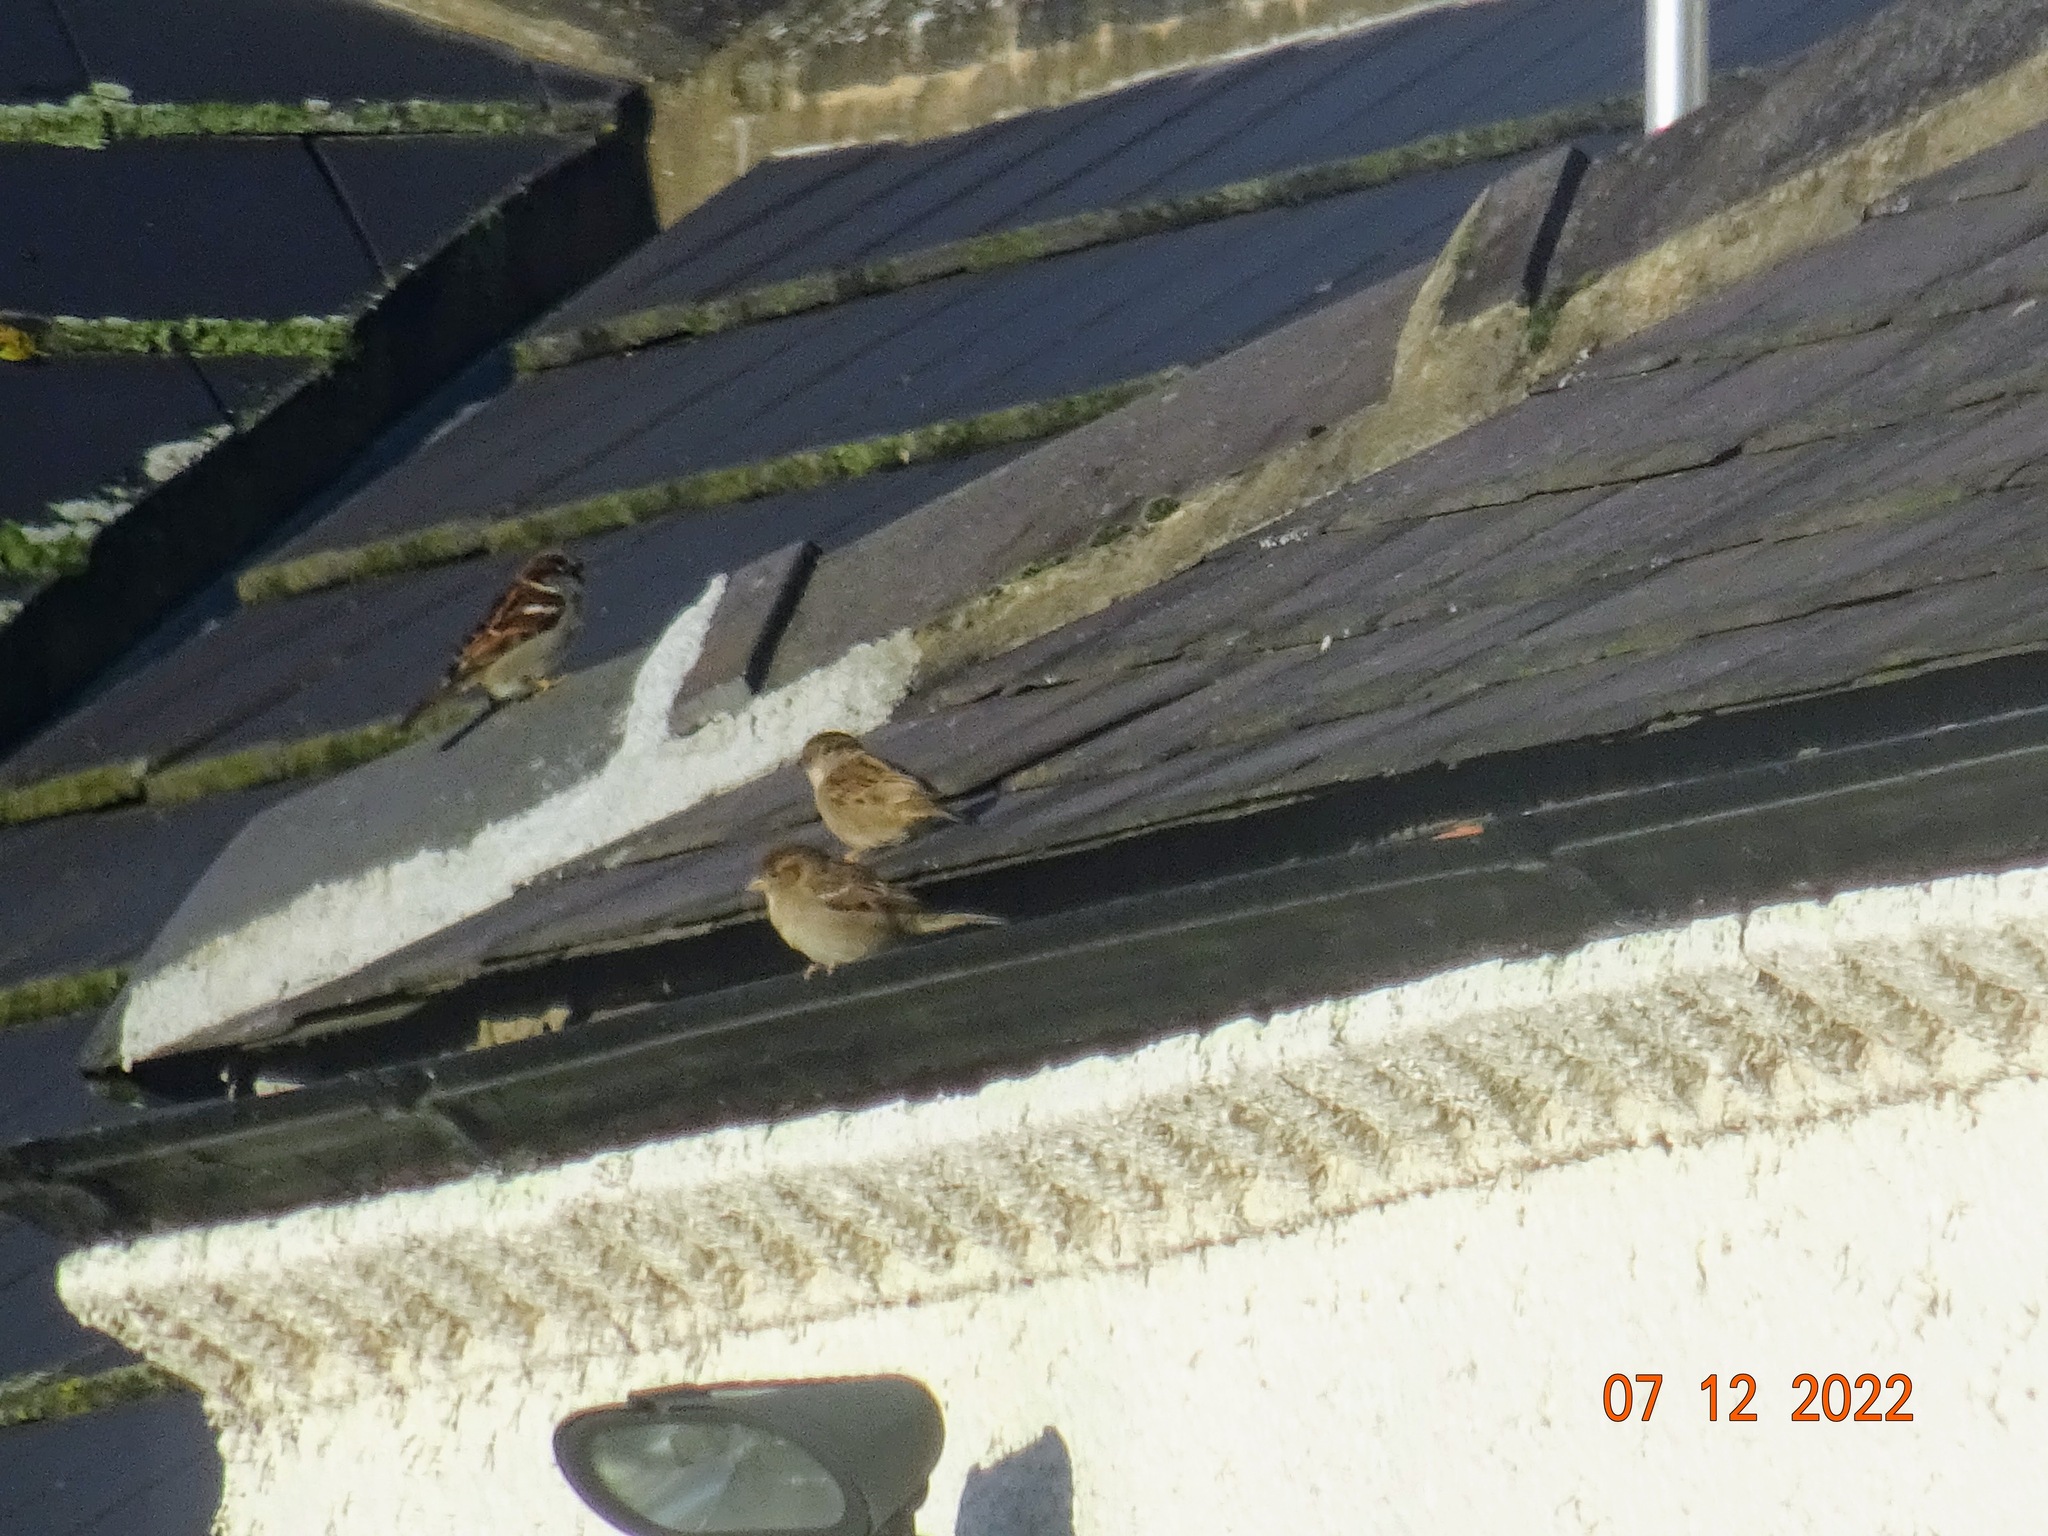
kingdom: Animalia
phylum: Chordata
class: Aves
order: Passeriformes
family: Passeridae
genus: Passer
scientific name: Passer domesticus
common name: House sparrow
